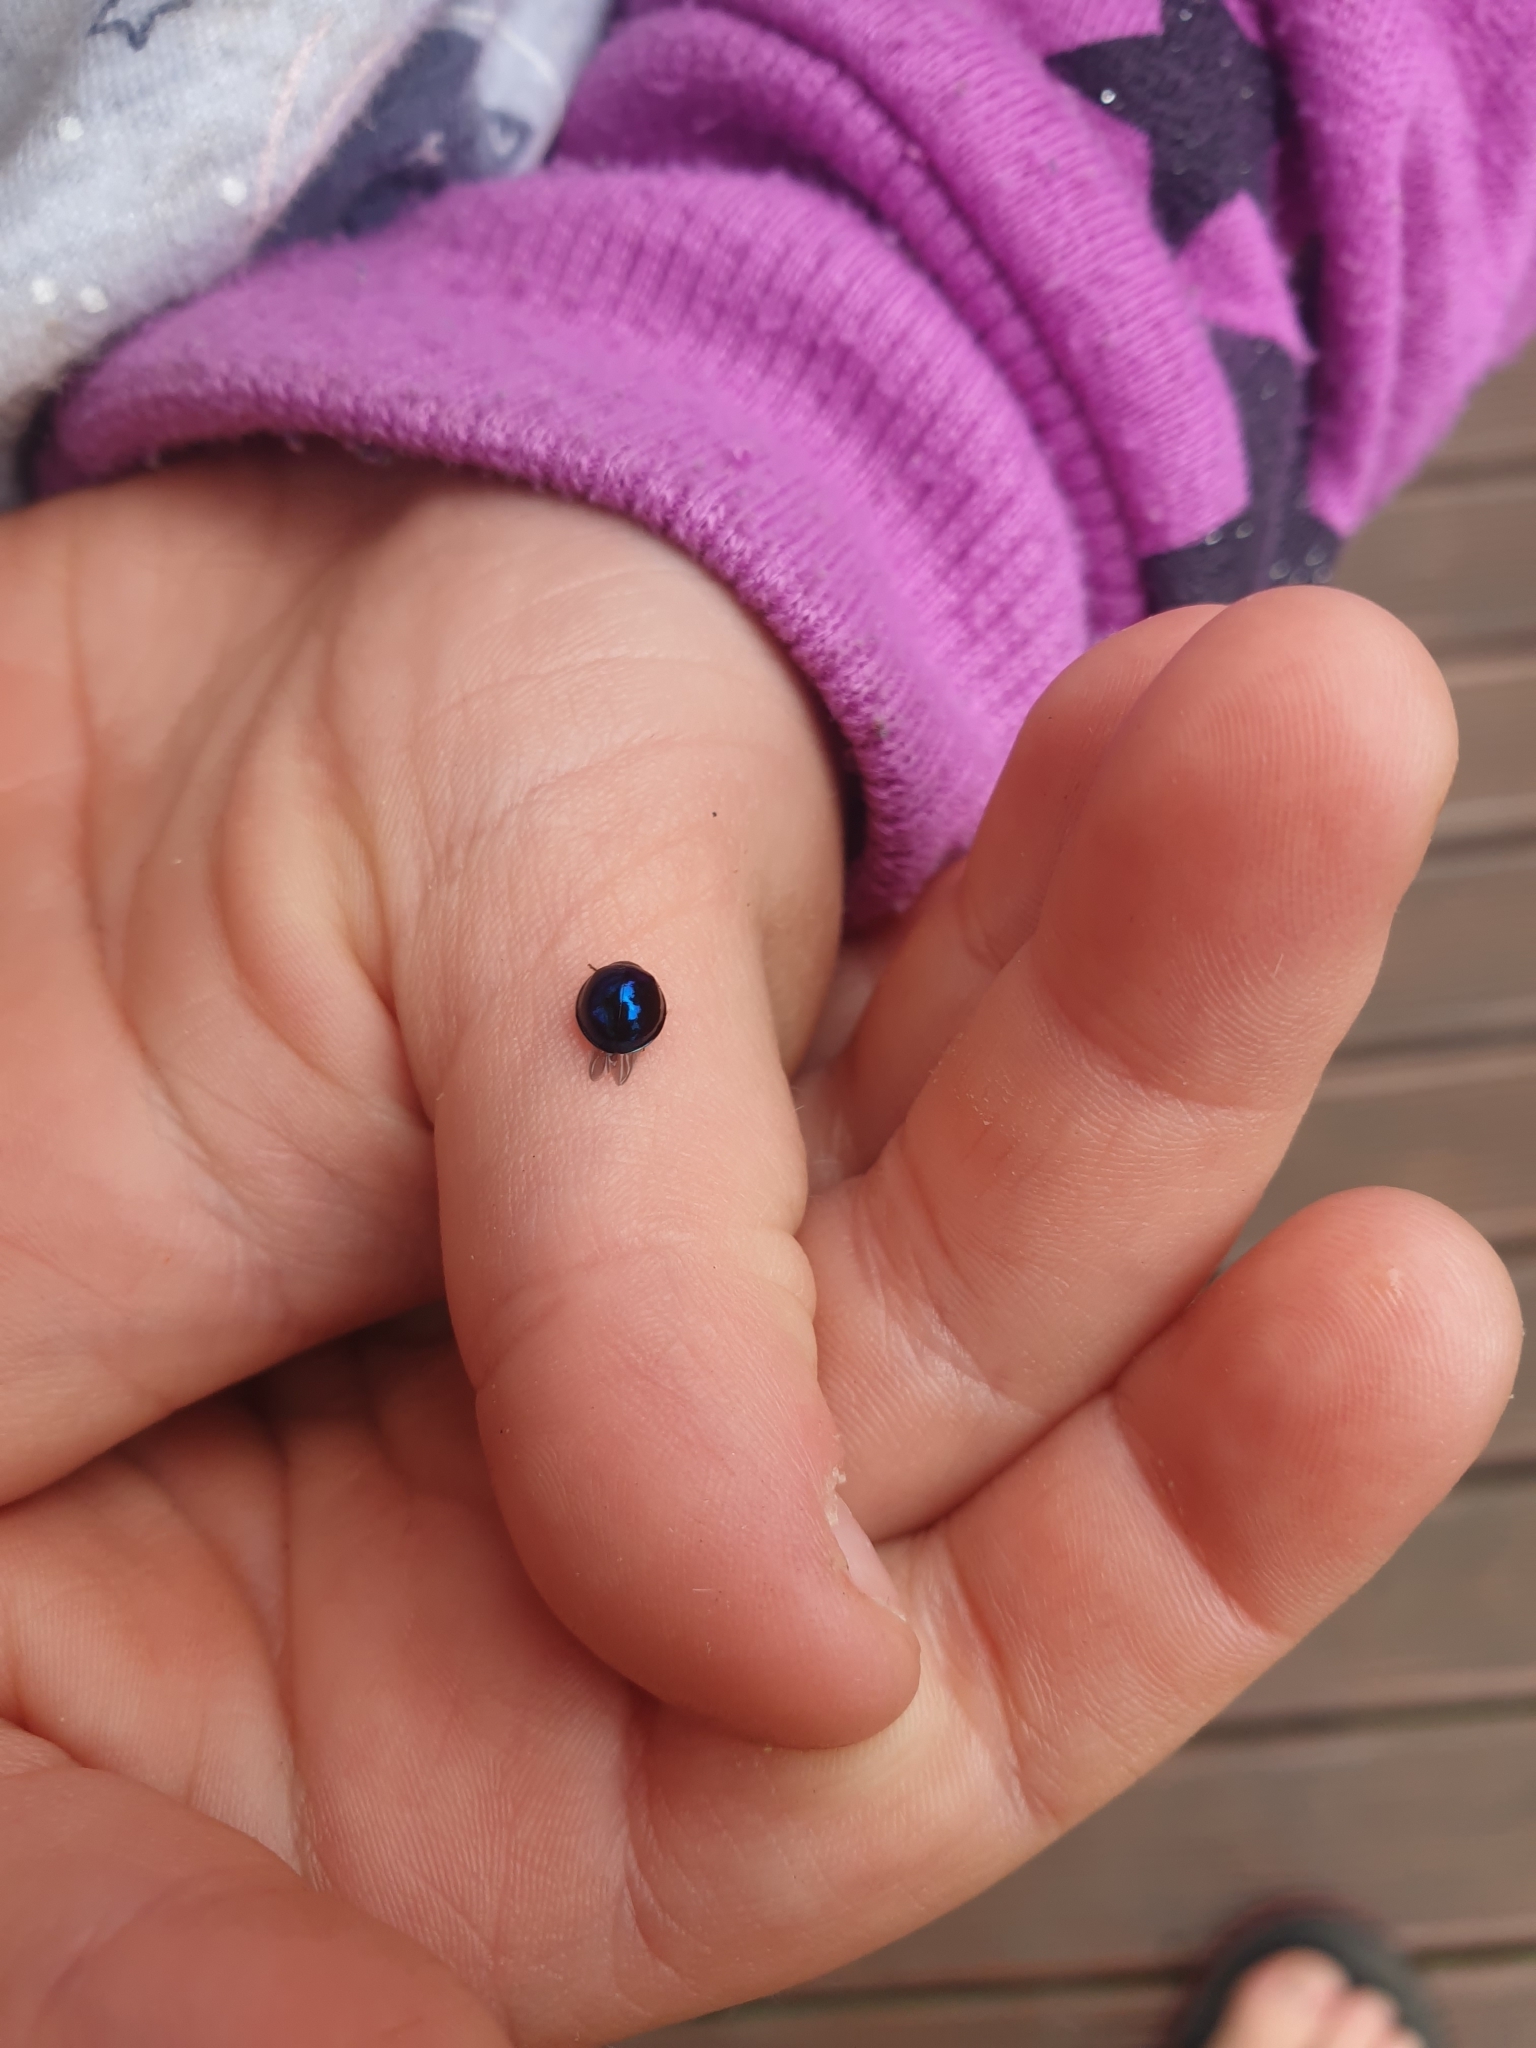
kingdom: Animalia
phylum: Arthropoda
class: Insecta
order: Coleoptera
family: Coccinellidae
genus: Halmus
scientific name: Halmus chalybeus
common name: Steel blue ladybird beetle
